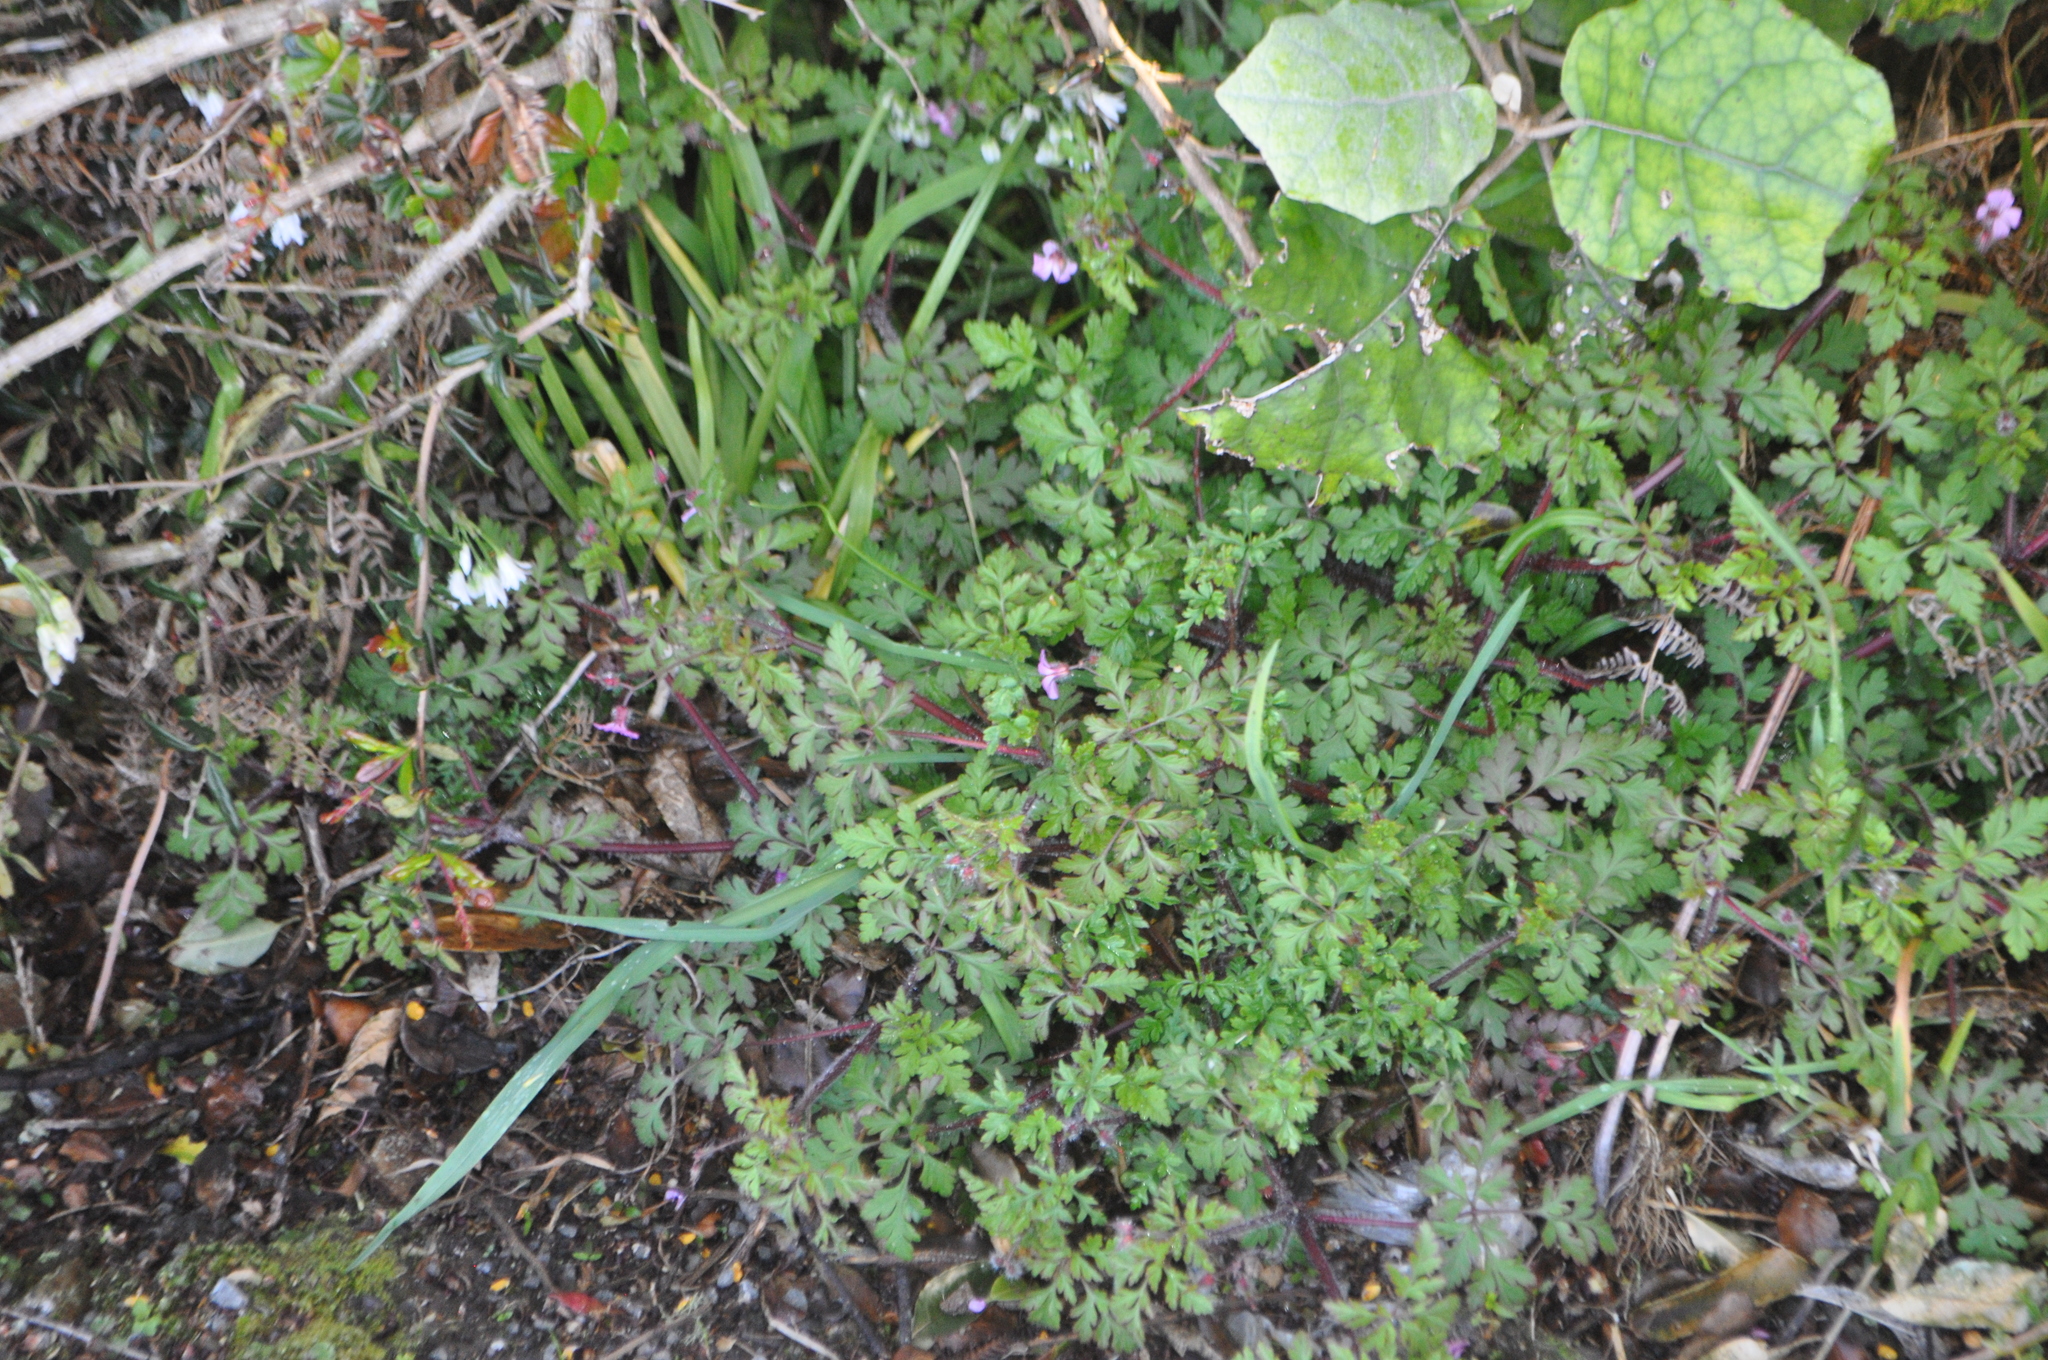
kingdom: Plantae
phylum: Tracheophyta
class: Magnoliopsida
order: Geraniales
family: Geraniaceae
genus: Geranium
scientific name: Geranium robertianum
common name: Herb-robert
